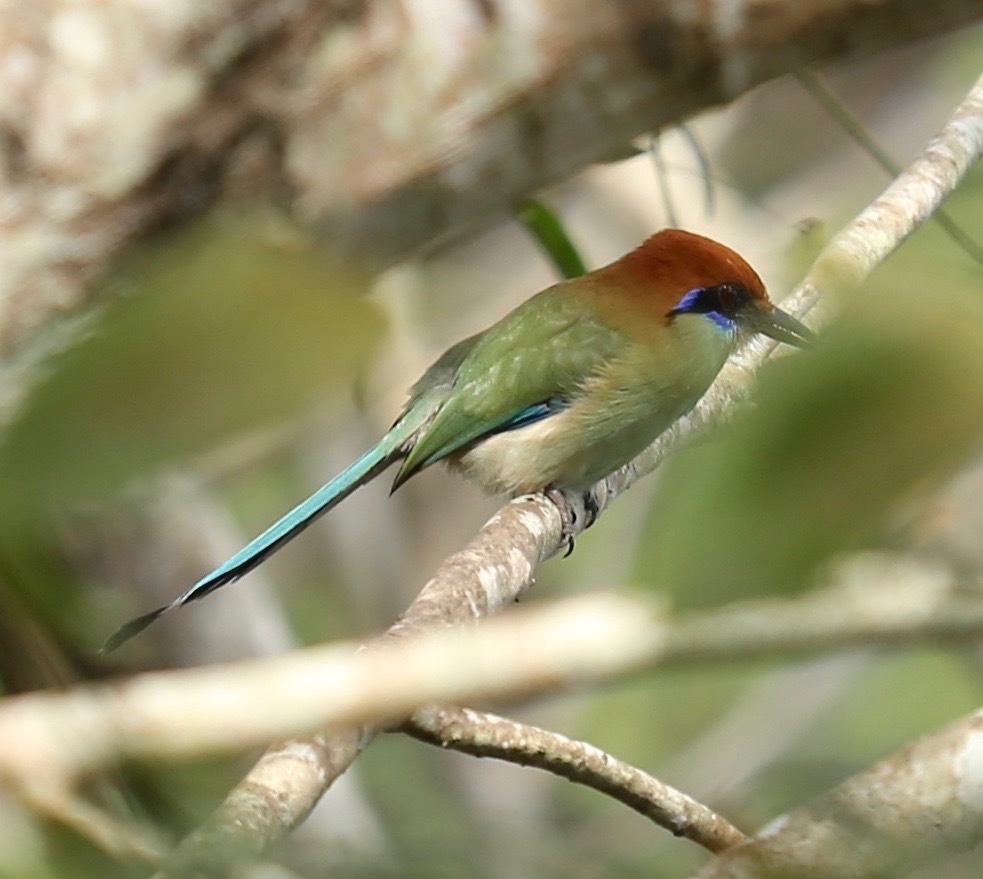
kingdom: Animalia
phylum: Chordata
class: Aves
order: Coraciiformes
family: Momotidae
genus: Momotus
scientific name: Momotus mexicanus
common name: Russet-crowned motmot
